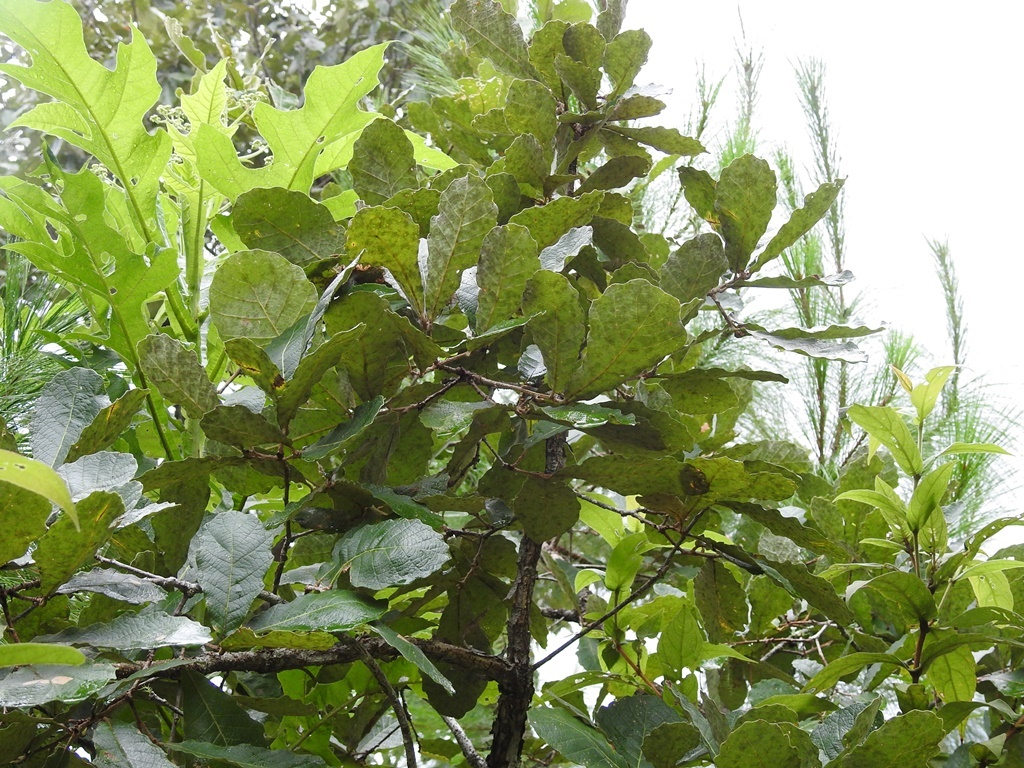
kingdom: Plantae
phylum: Tracheophyta
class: Magnoliopsida
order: Fagales
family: Fagaceae
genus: Quercus
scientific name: Quercus peduncularis
